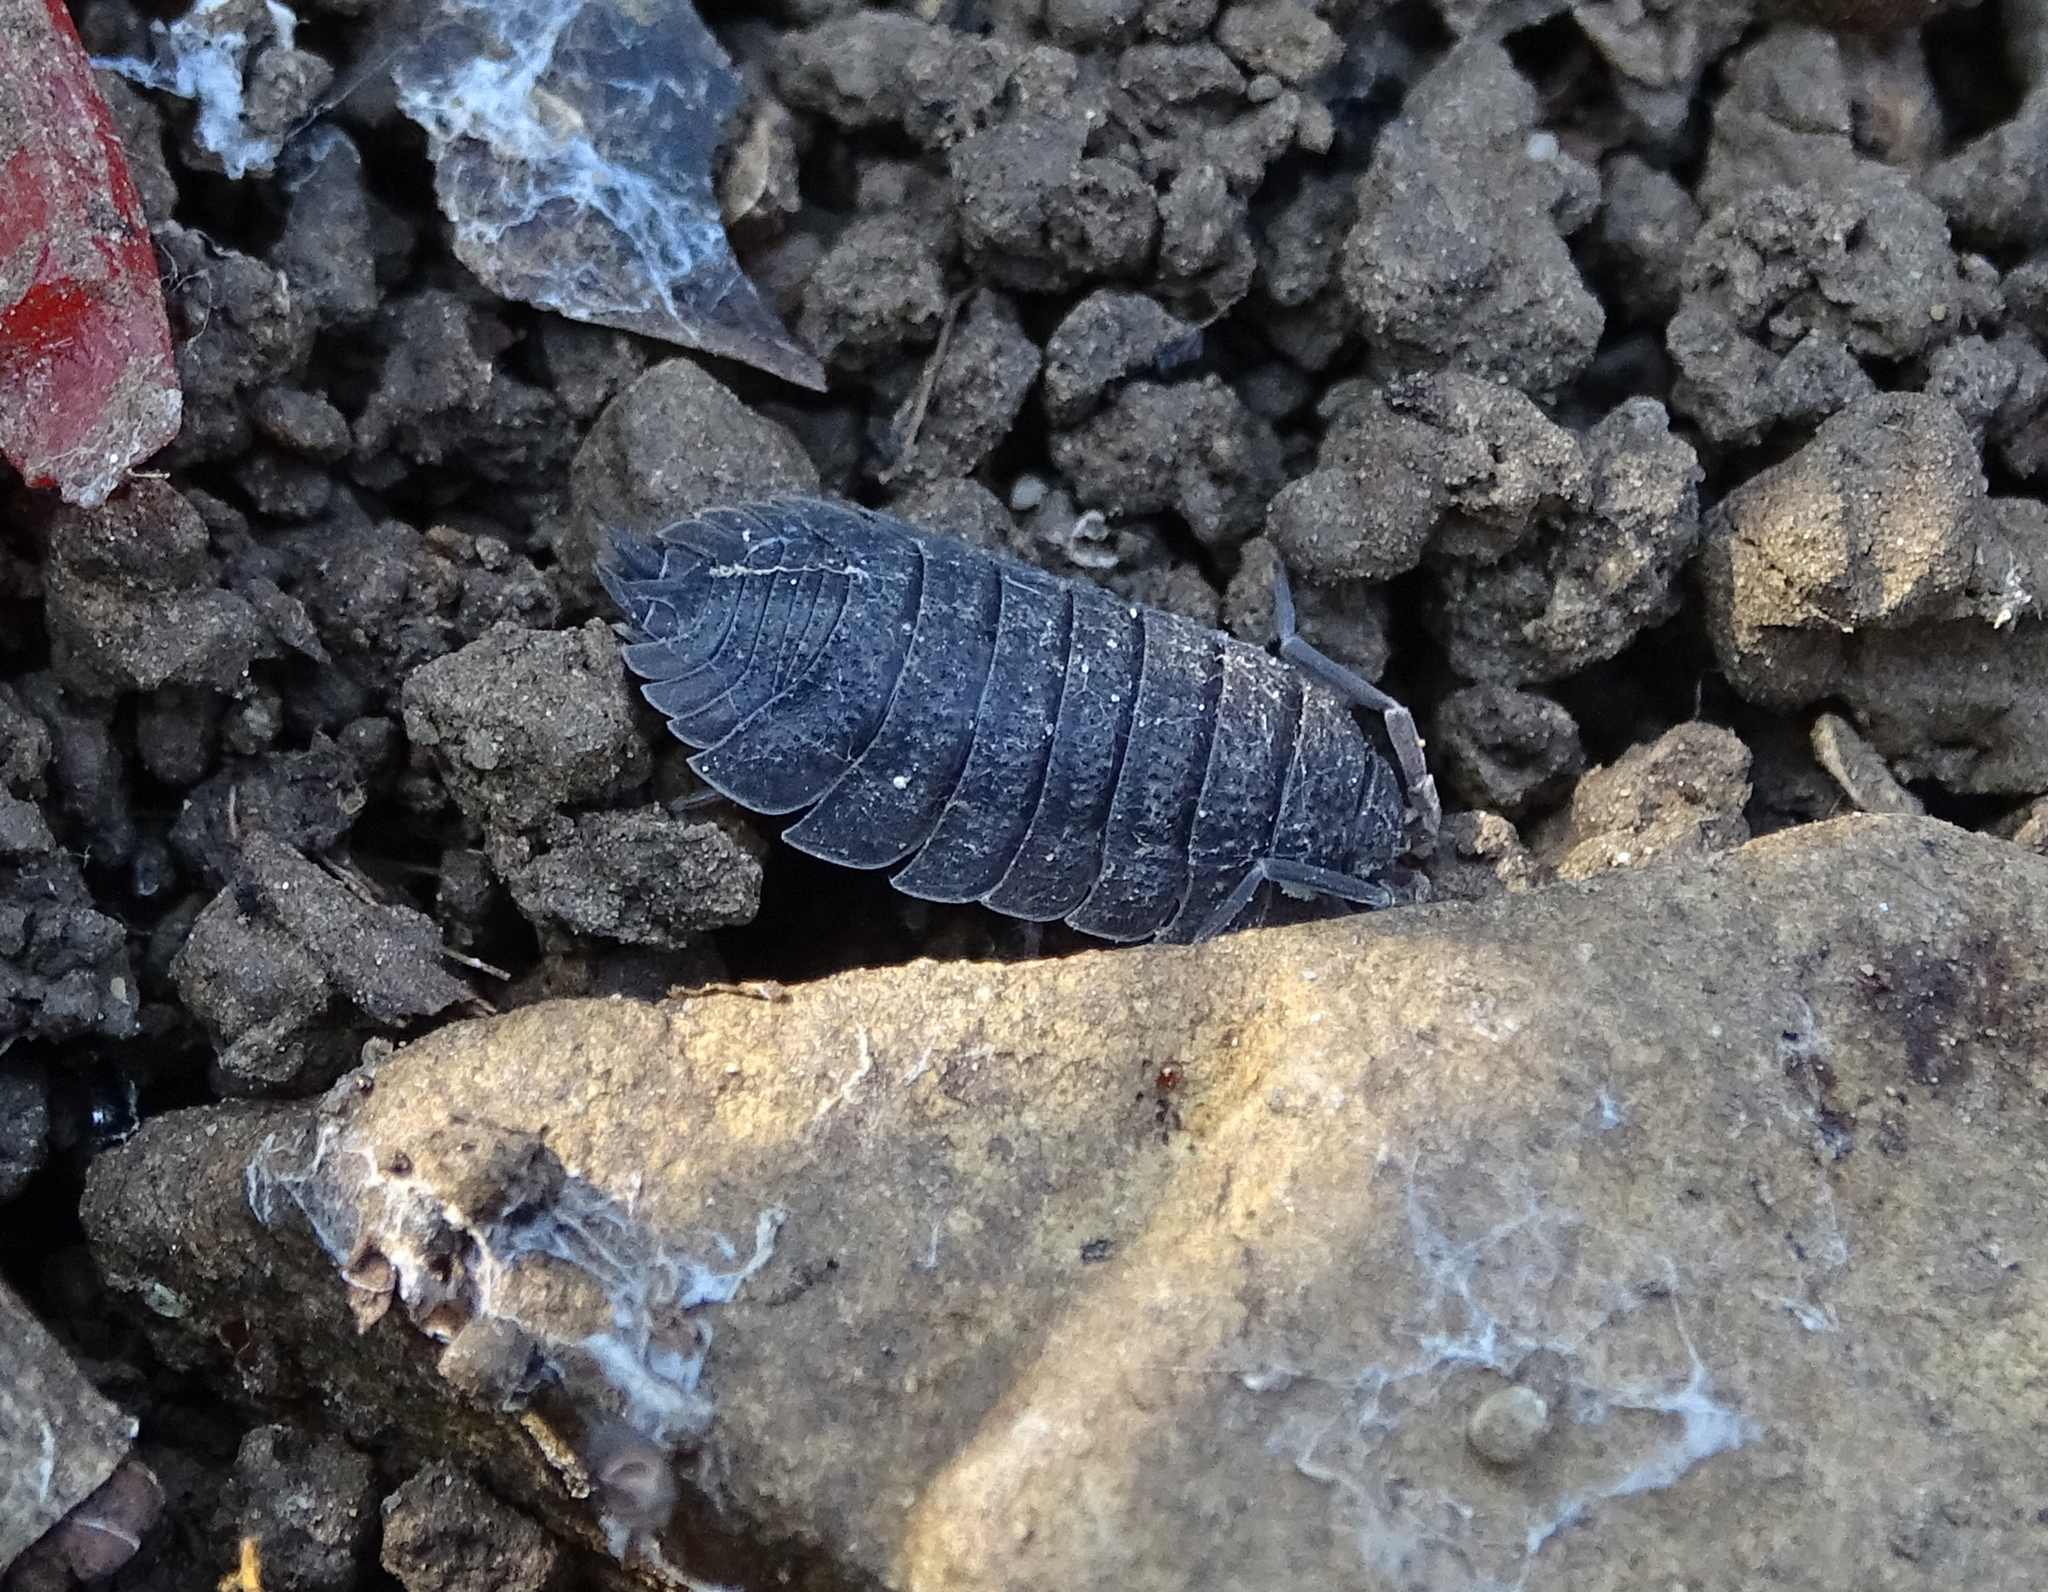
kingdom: Animalia
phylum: Arthropoda
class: Malacostraca
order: Isopoda
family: Porcellionidae
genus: Porcellio
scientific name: Porcellio scaber
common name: Common rough woodlouse
